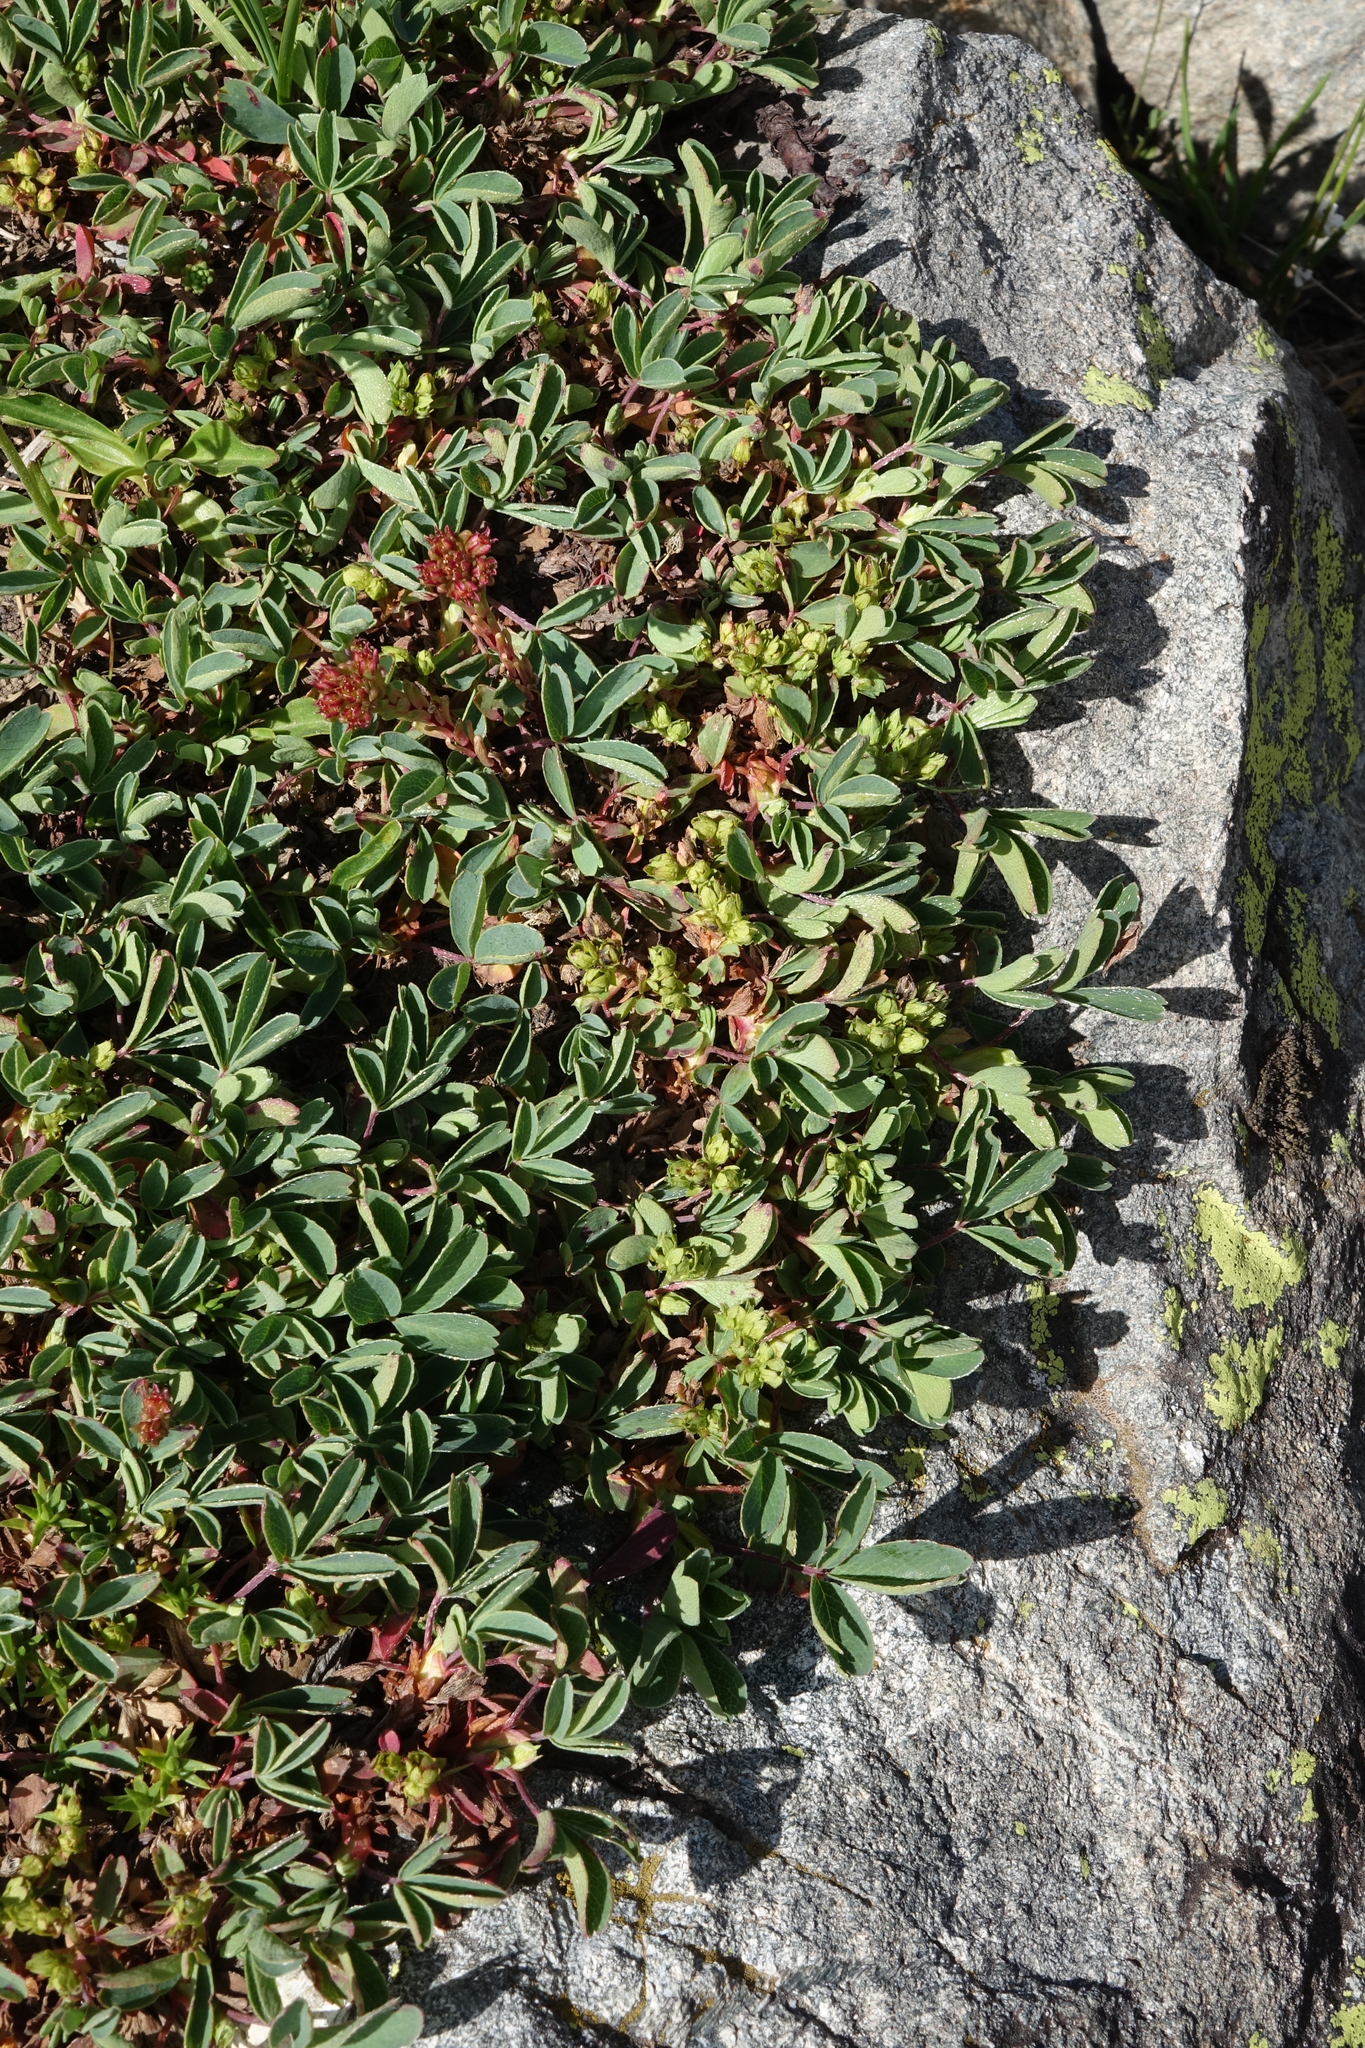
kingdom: Plantae
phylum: Tracheophyta
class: Magnoliopsida
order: Rosales
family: Rosaceae
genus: Sibbaldia
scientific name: Sibbaldia parviflora
